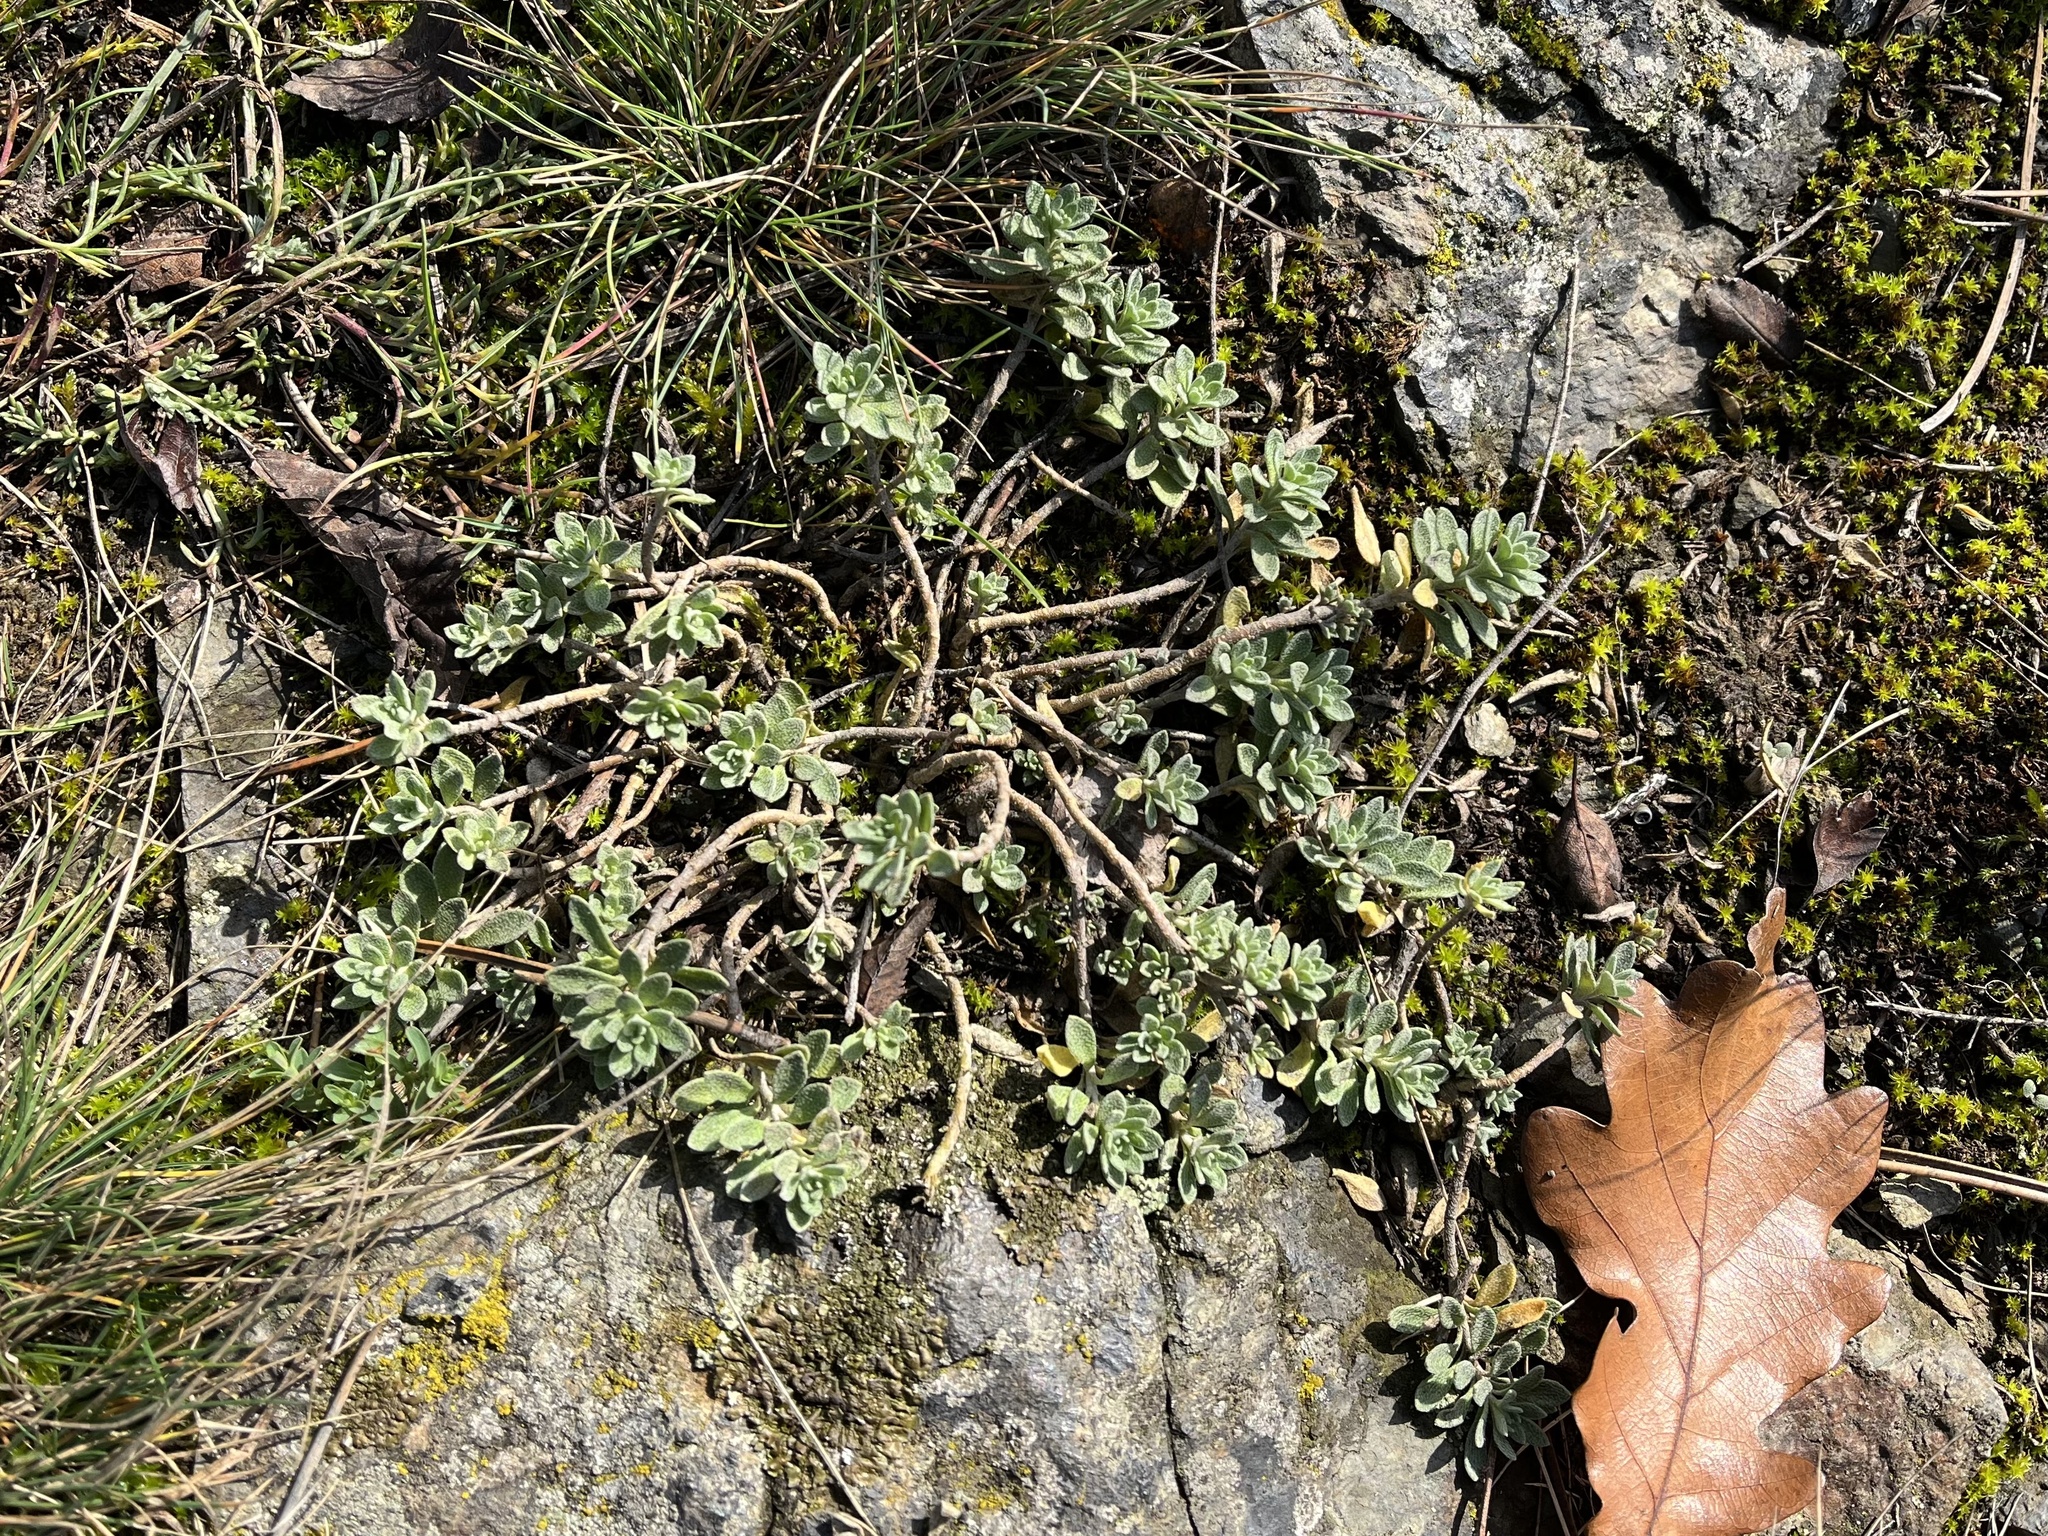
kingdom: Plantae
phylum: Tracheophyta
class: Magnoliopsida
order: Brassicales
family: Brassicaceae
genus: Alyssum
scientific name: Alyssum gmelinii
